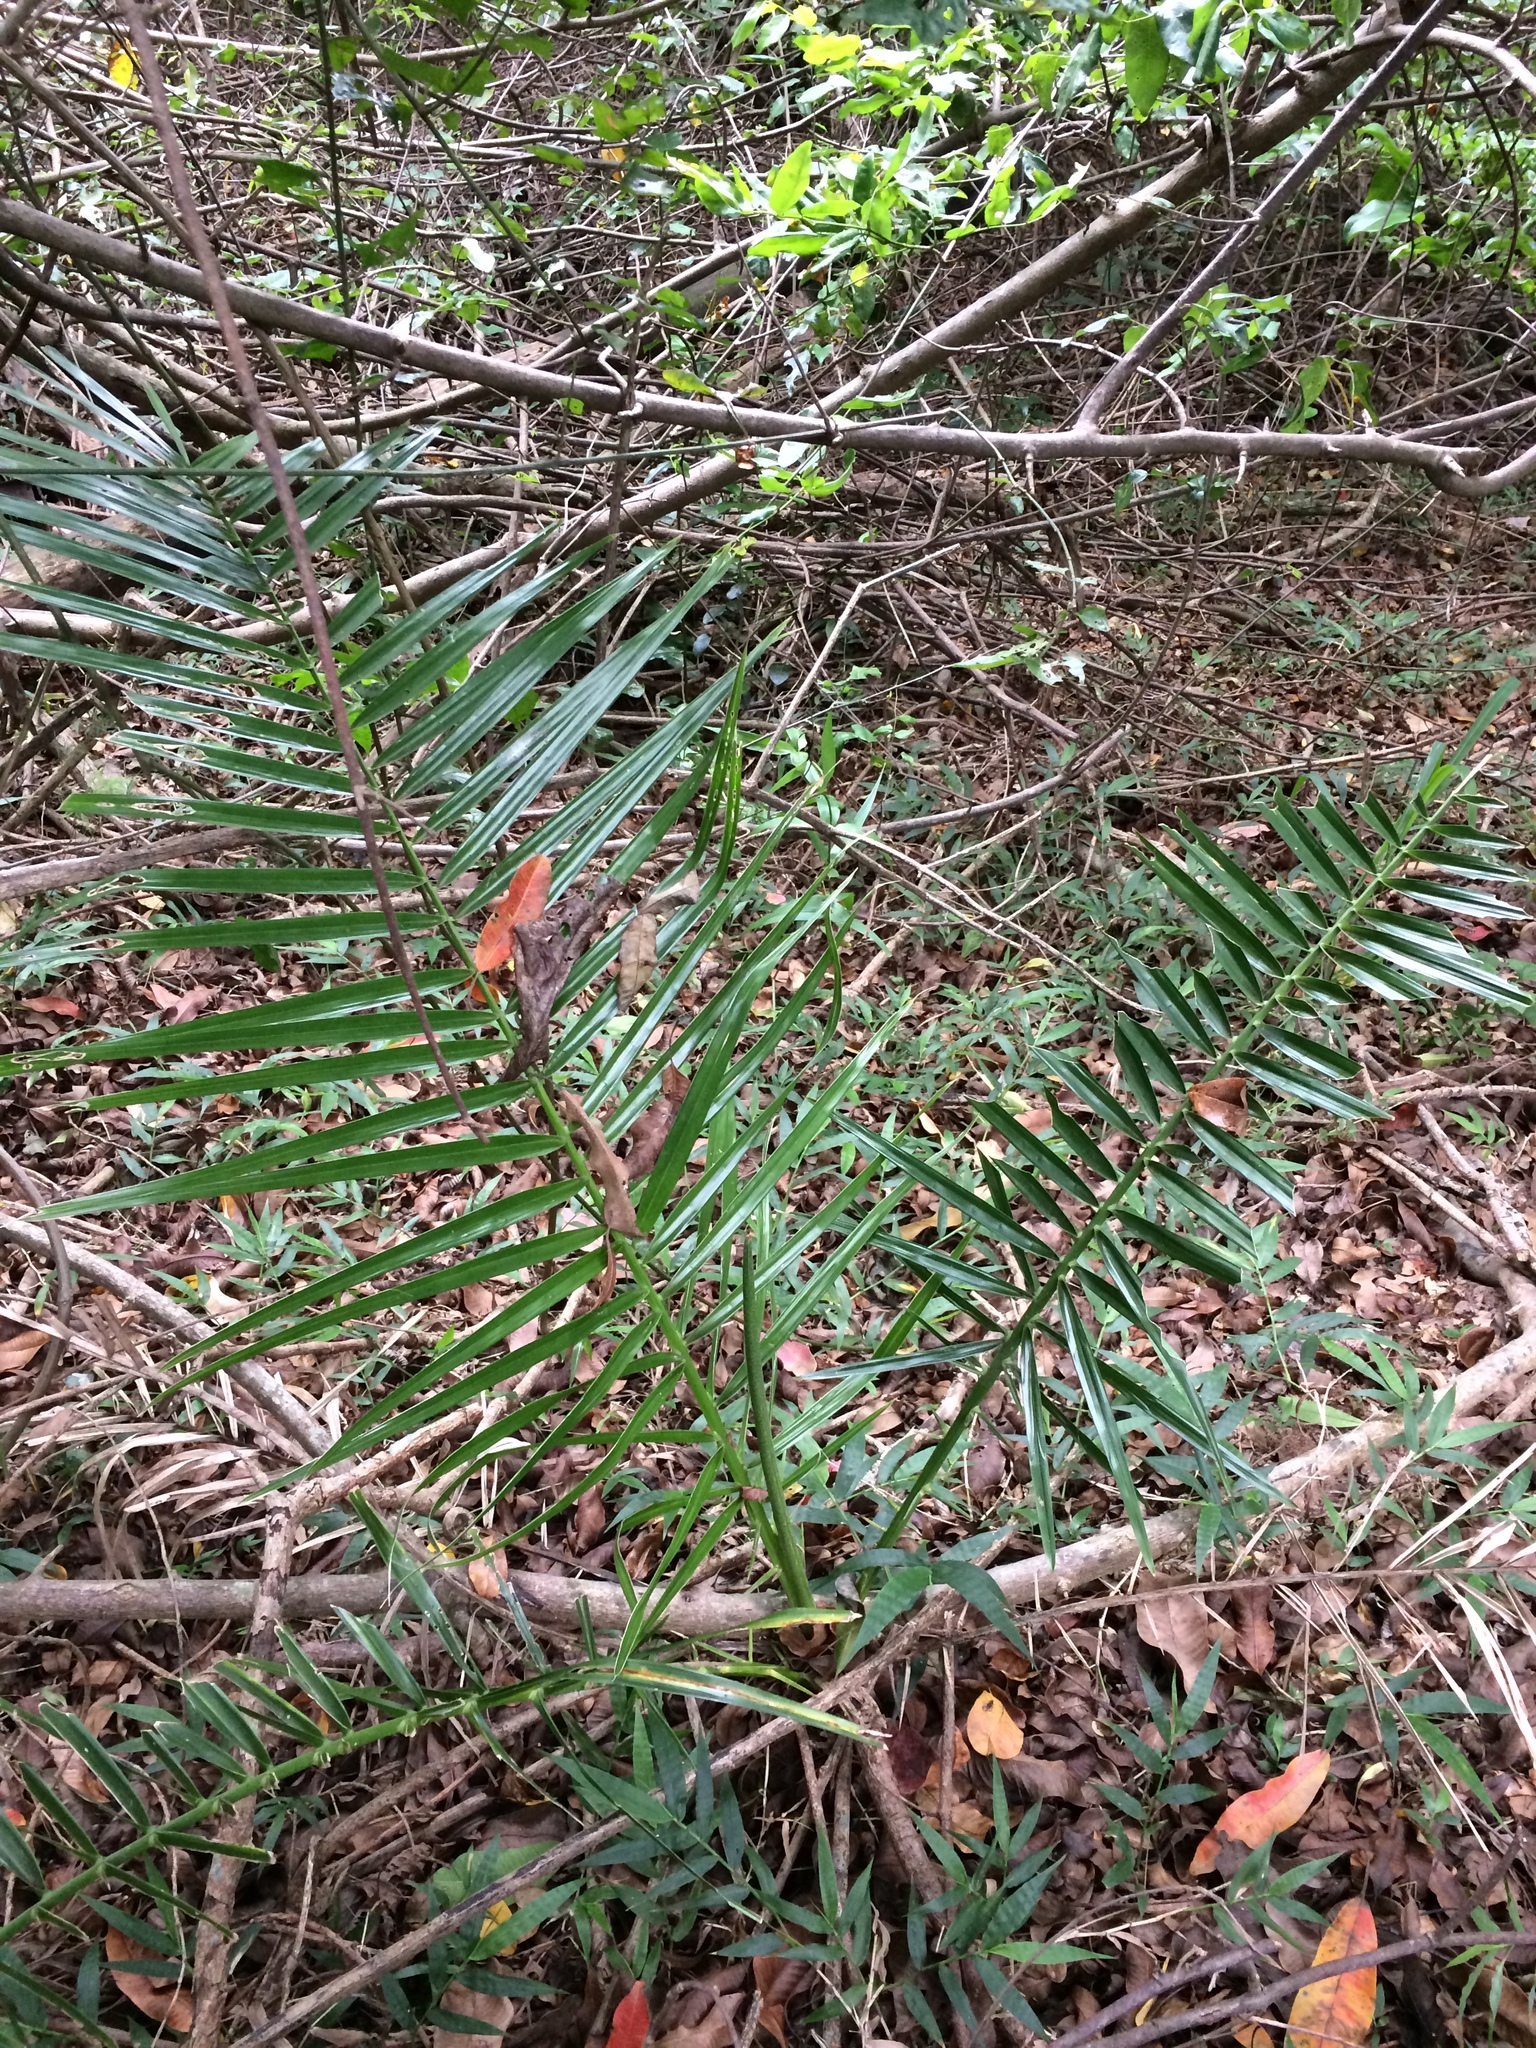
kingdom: Plantae
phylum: Tracheophyta
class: Liliopsida
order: Arecales
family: Arecaceae
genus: Phoenix
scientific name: Phoenix reclinata
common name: Senegal date palm
